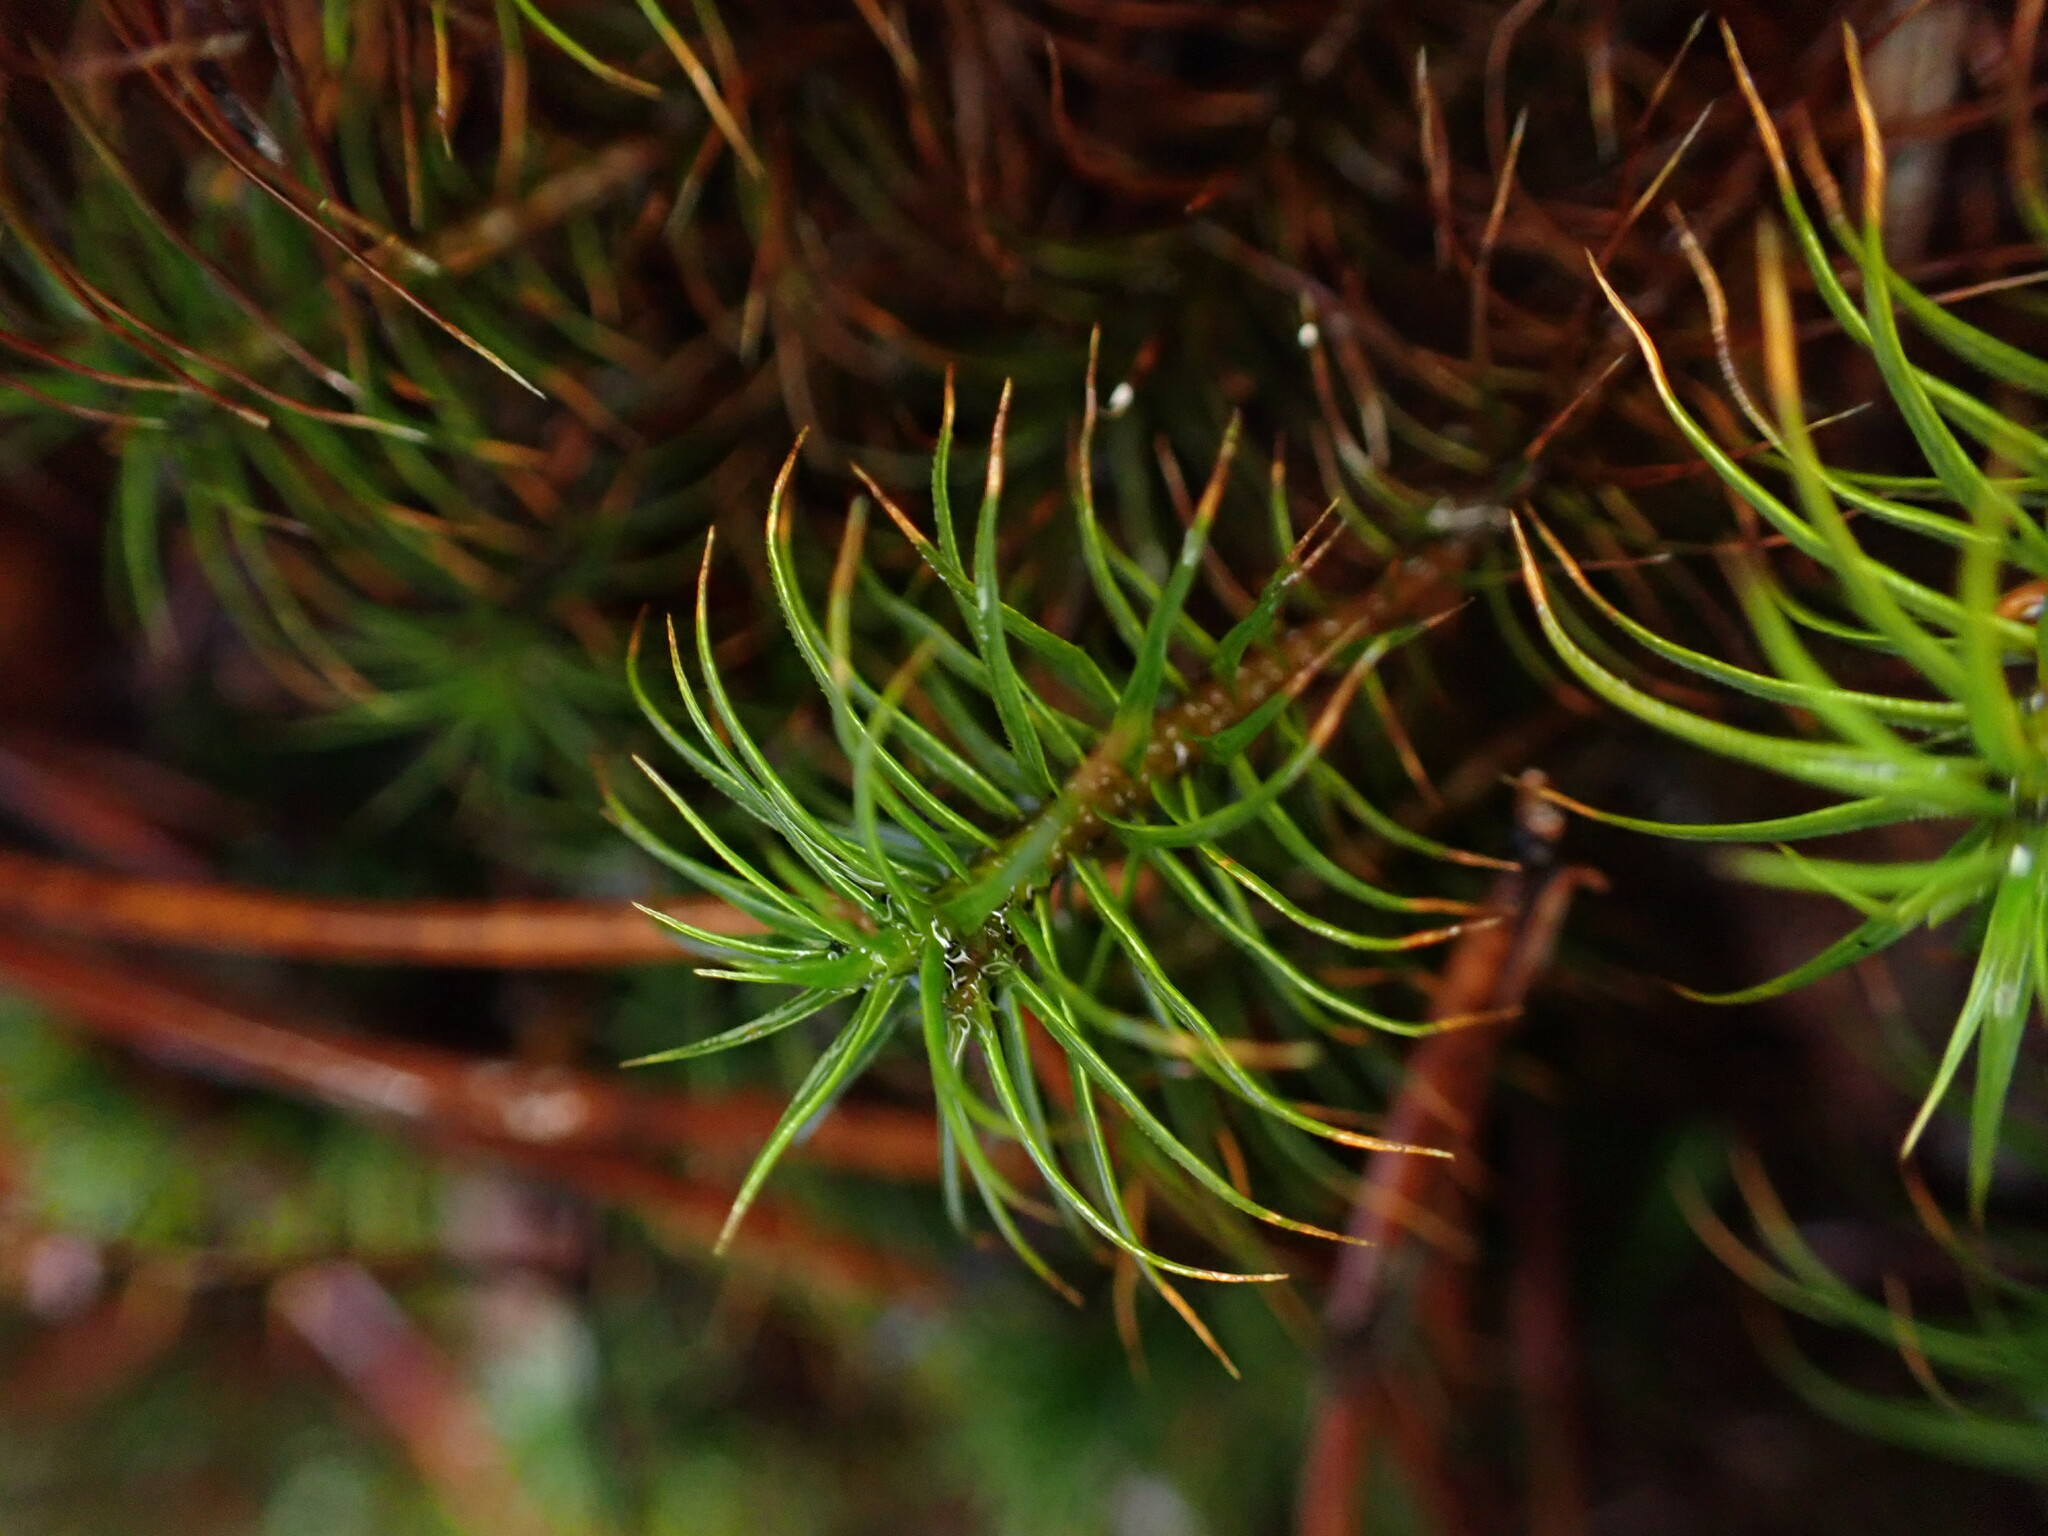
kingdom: Plantae
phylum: Bryophyta
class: Polytrichopsida
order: Polytrichales
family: Polytrichaceae
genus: Polytrichum
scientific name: Polytrichum juniperinum
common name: Juniper haircap moss
